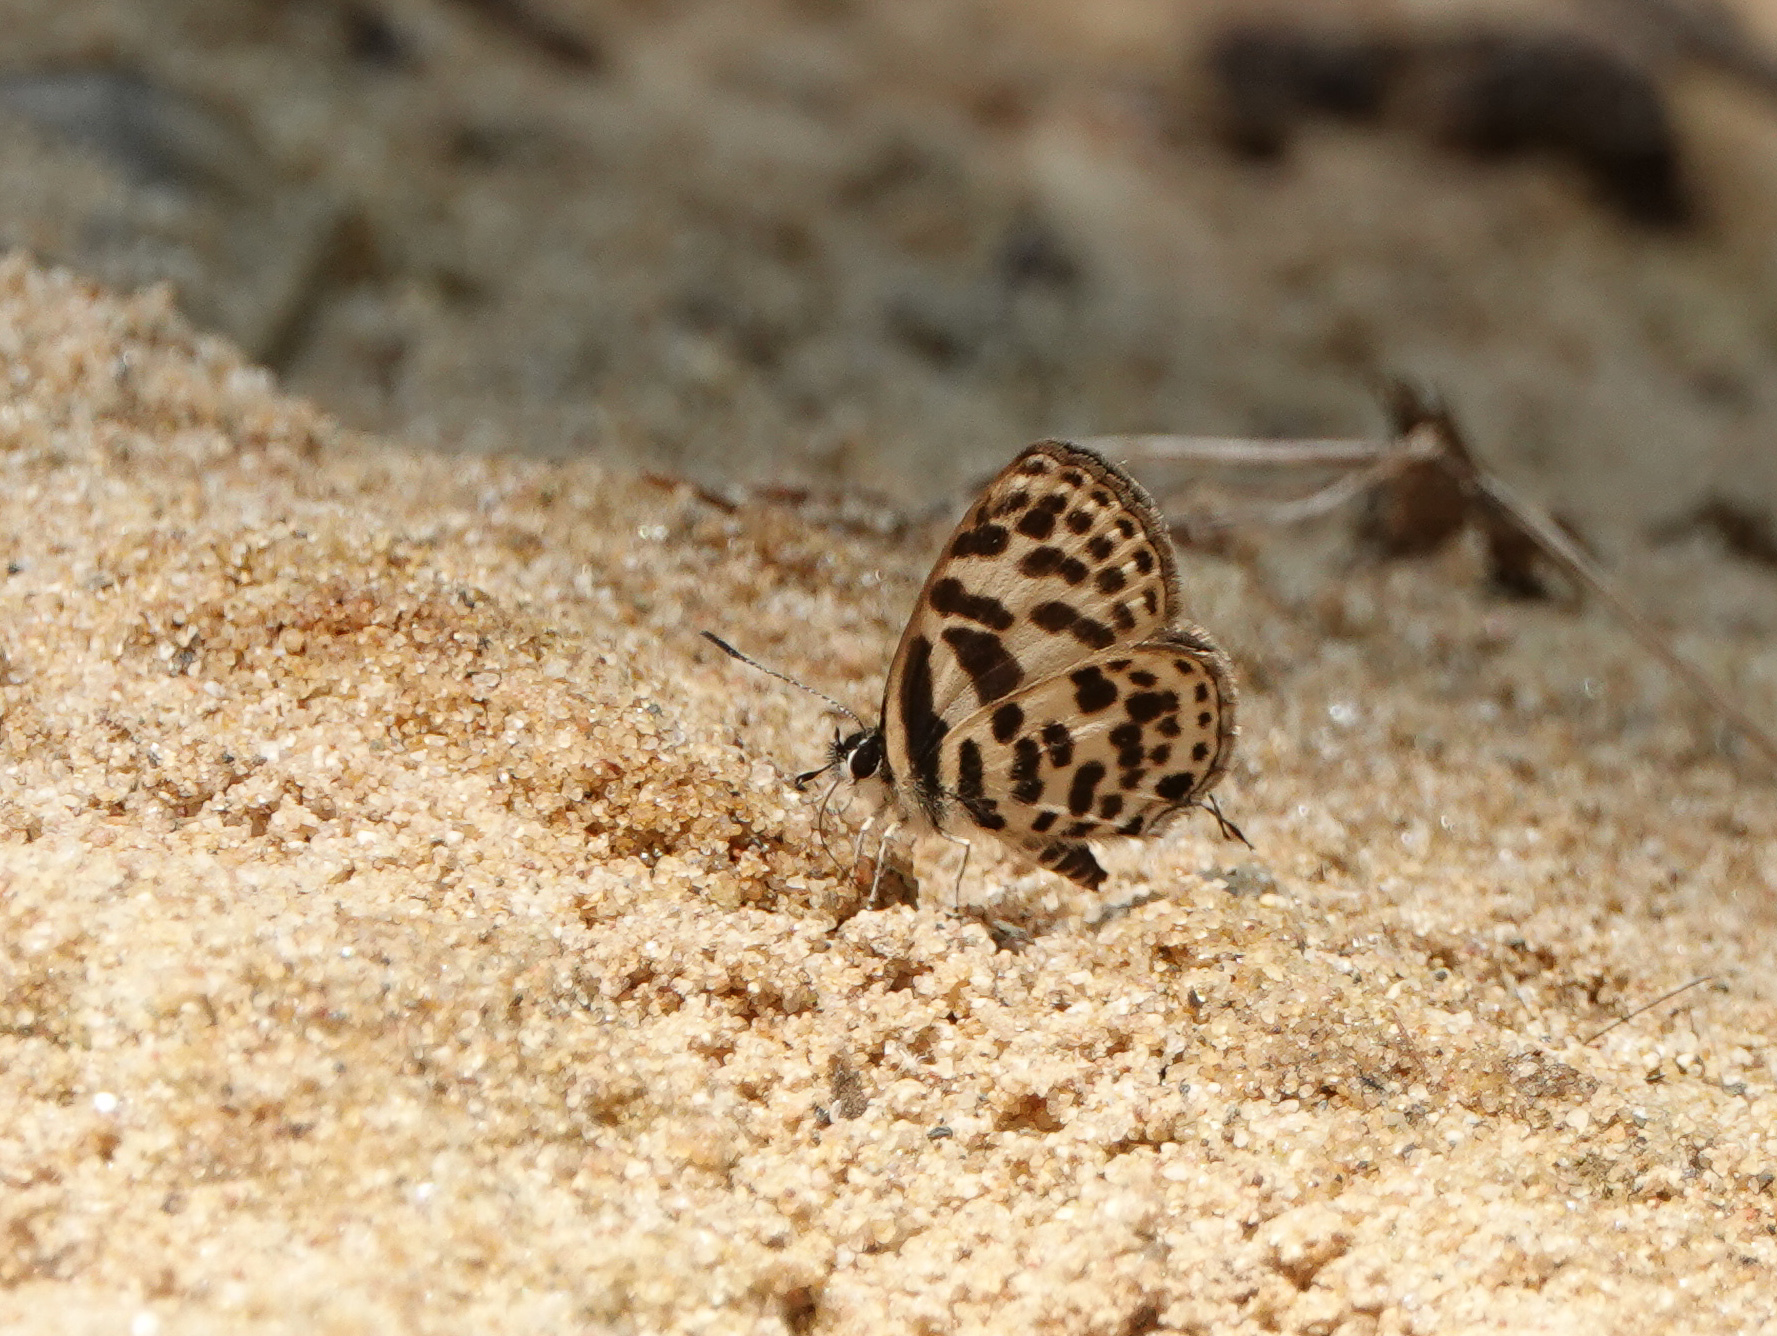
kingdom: Animalia
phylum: Arthropoda
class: Insecta
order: Lepidoptera
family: Lycaenidae
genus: Tarucus
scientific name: Tarucus
